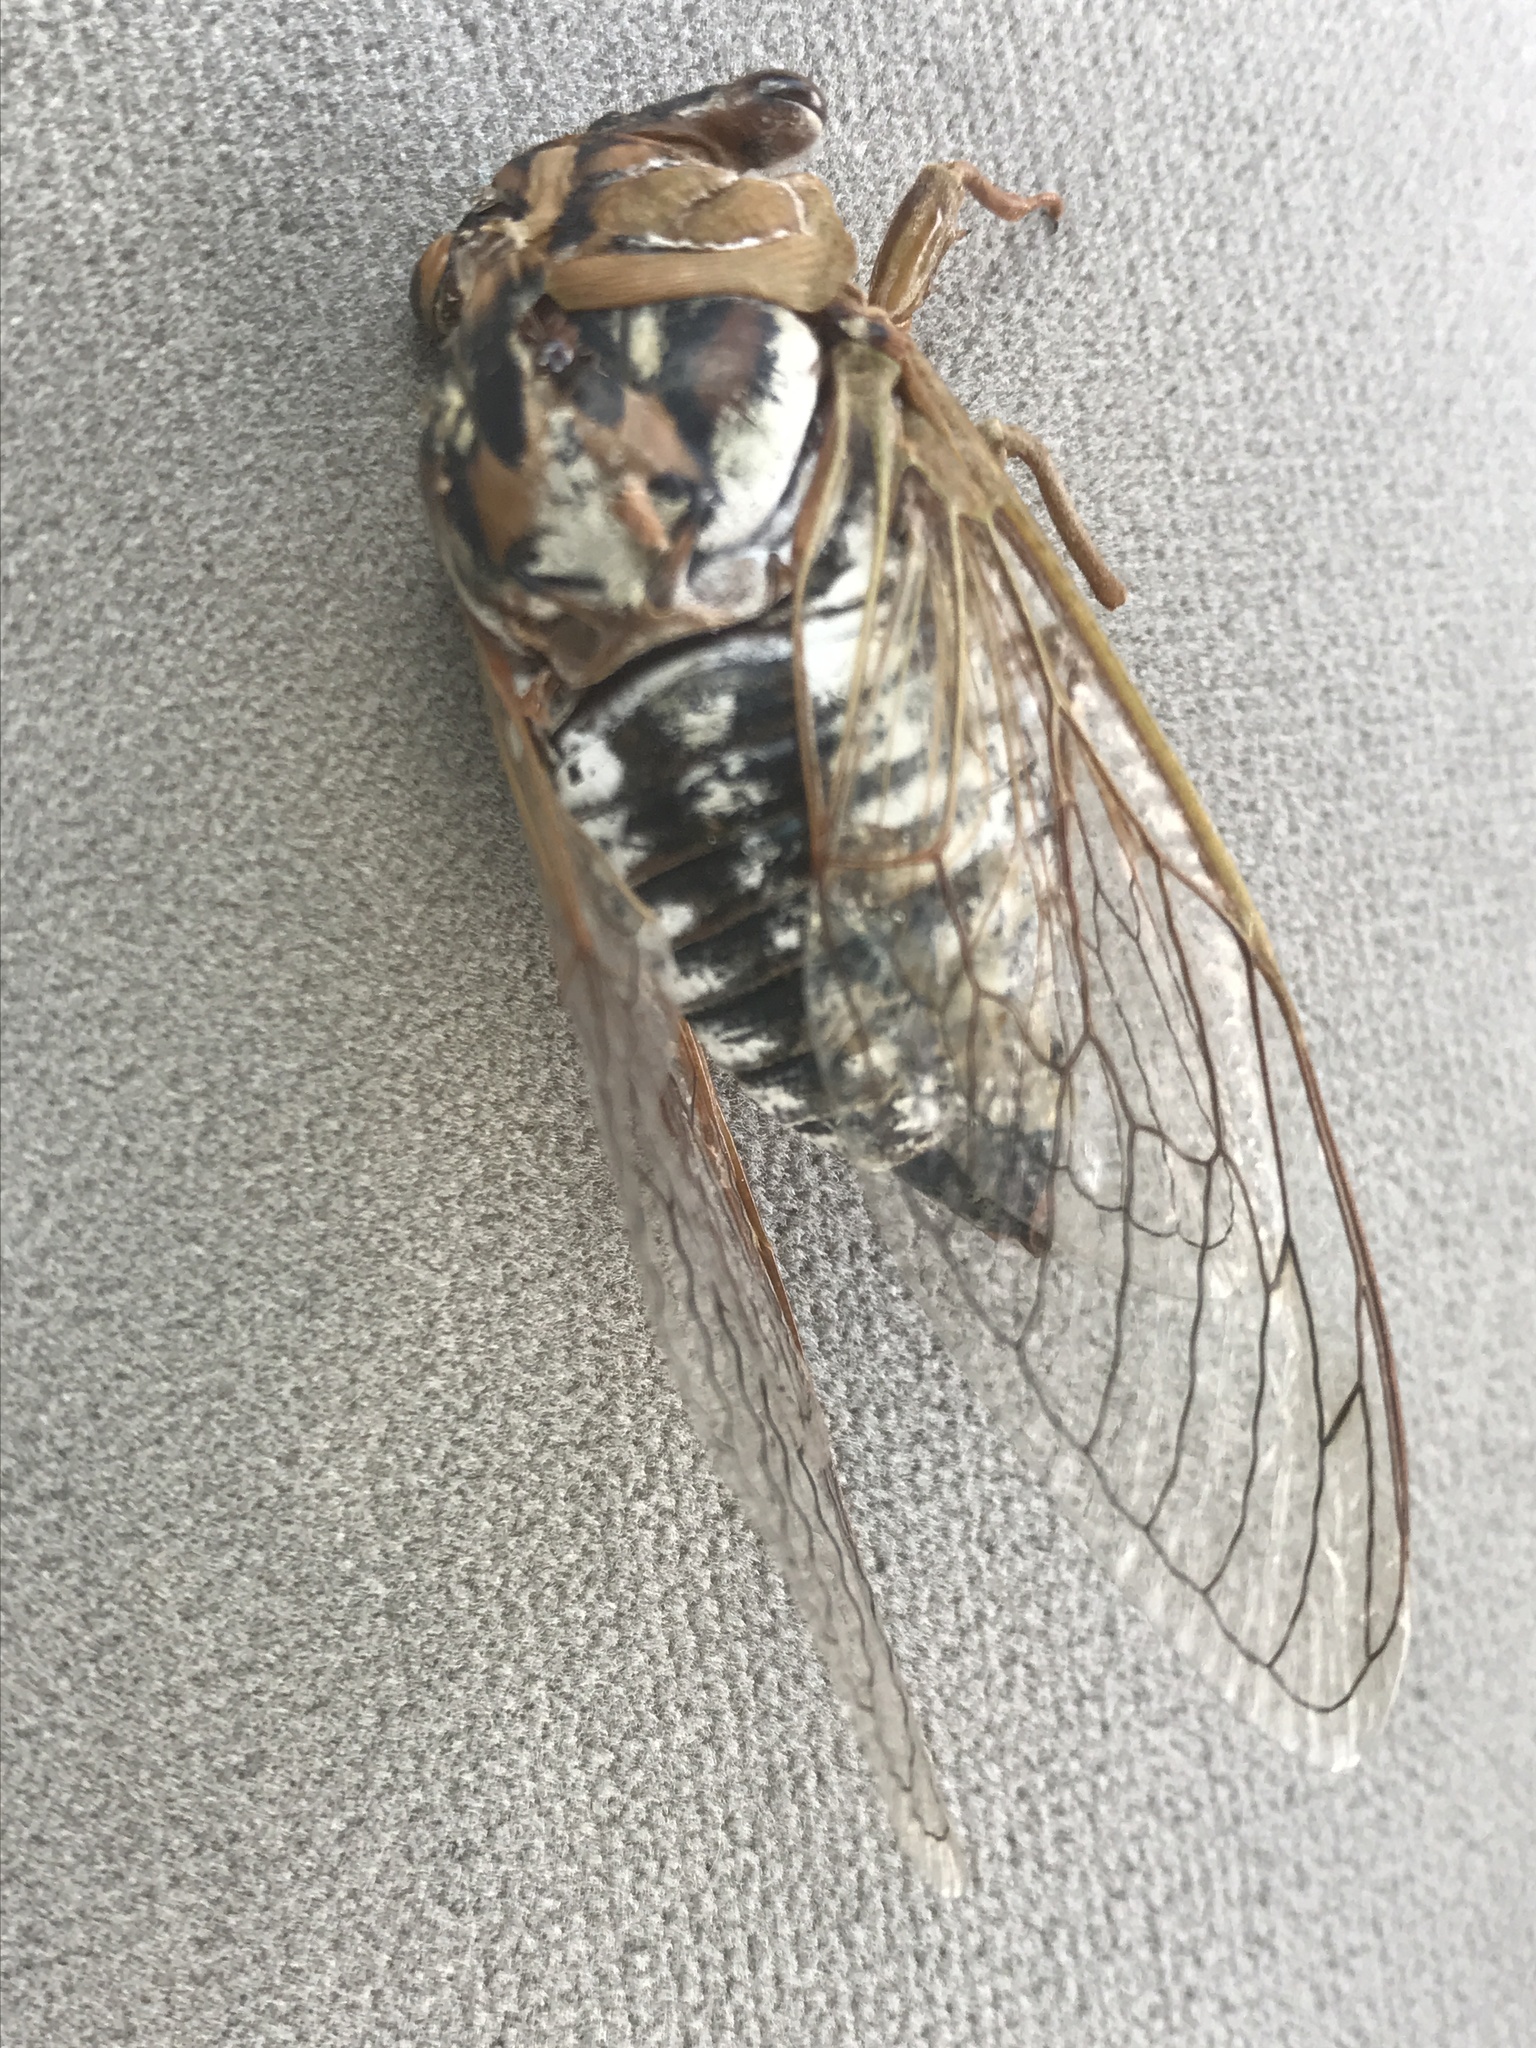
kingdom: Animalia
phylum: Arthropoda
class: Insecta
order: Hemiptera
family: Cicadidae
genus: Megatibicen
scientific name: Megatibicen dealbatus
